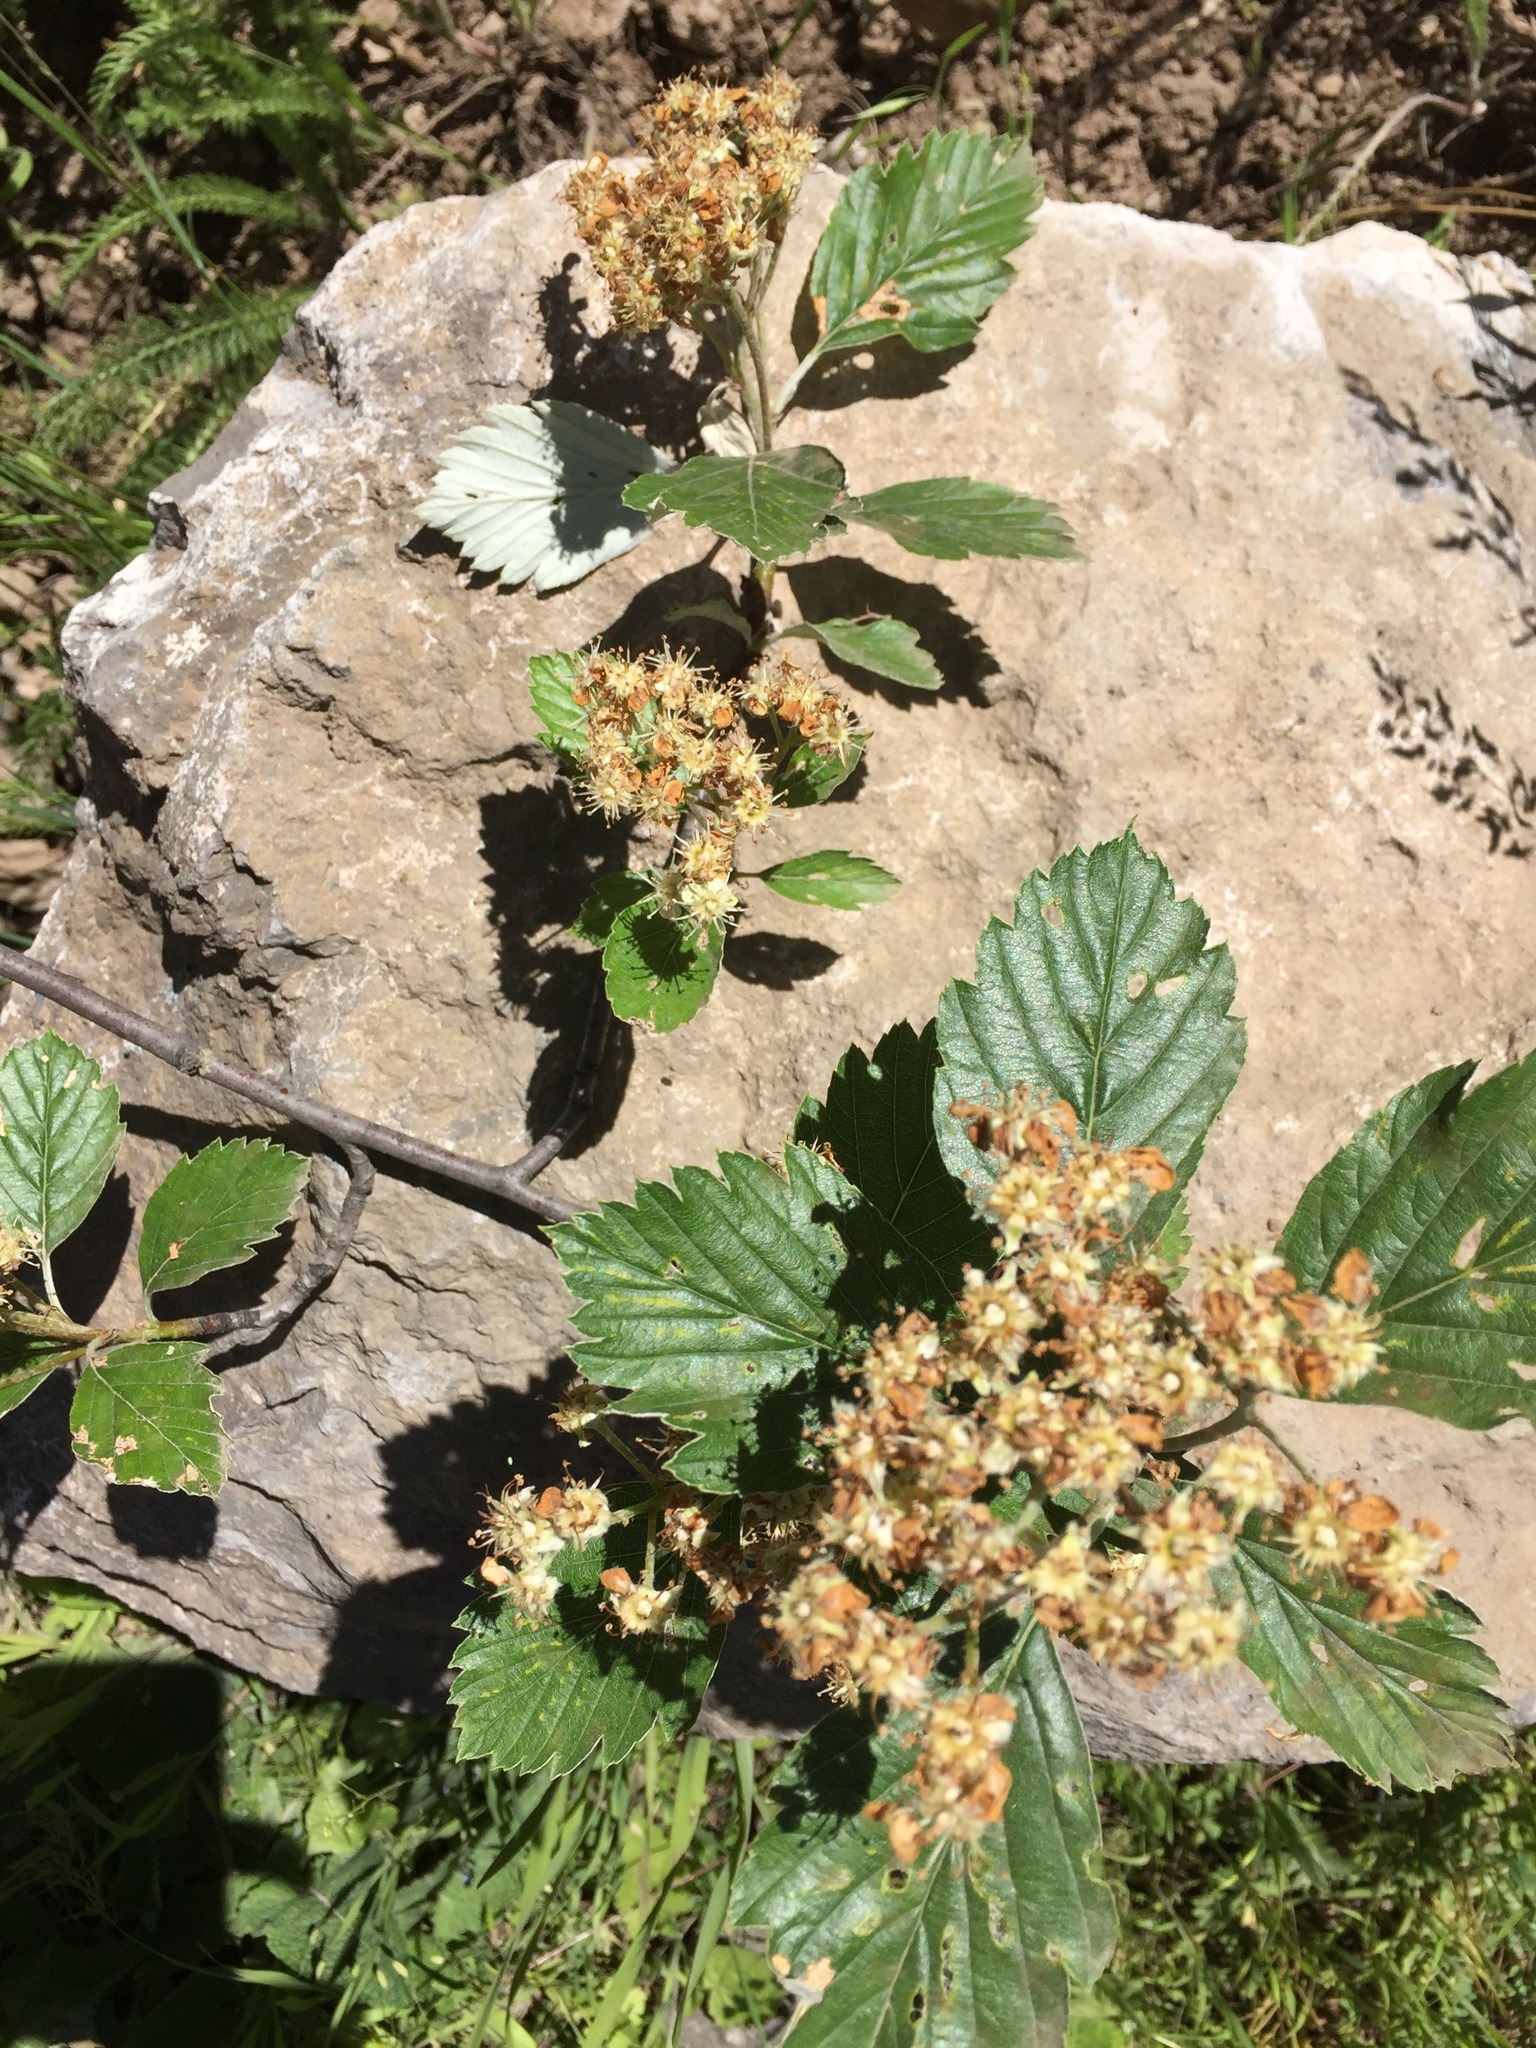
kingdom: Plantae
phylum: Tracheophyta
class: Magnoliopsida
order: Rosales
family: Rosaceae
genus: Aria
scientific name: Aria edulis
